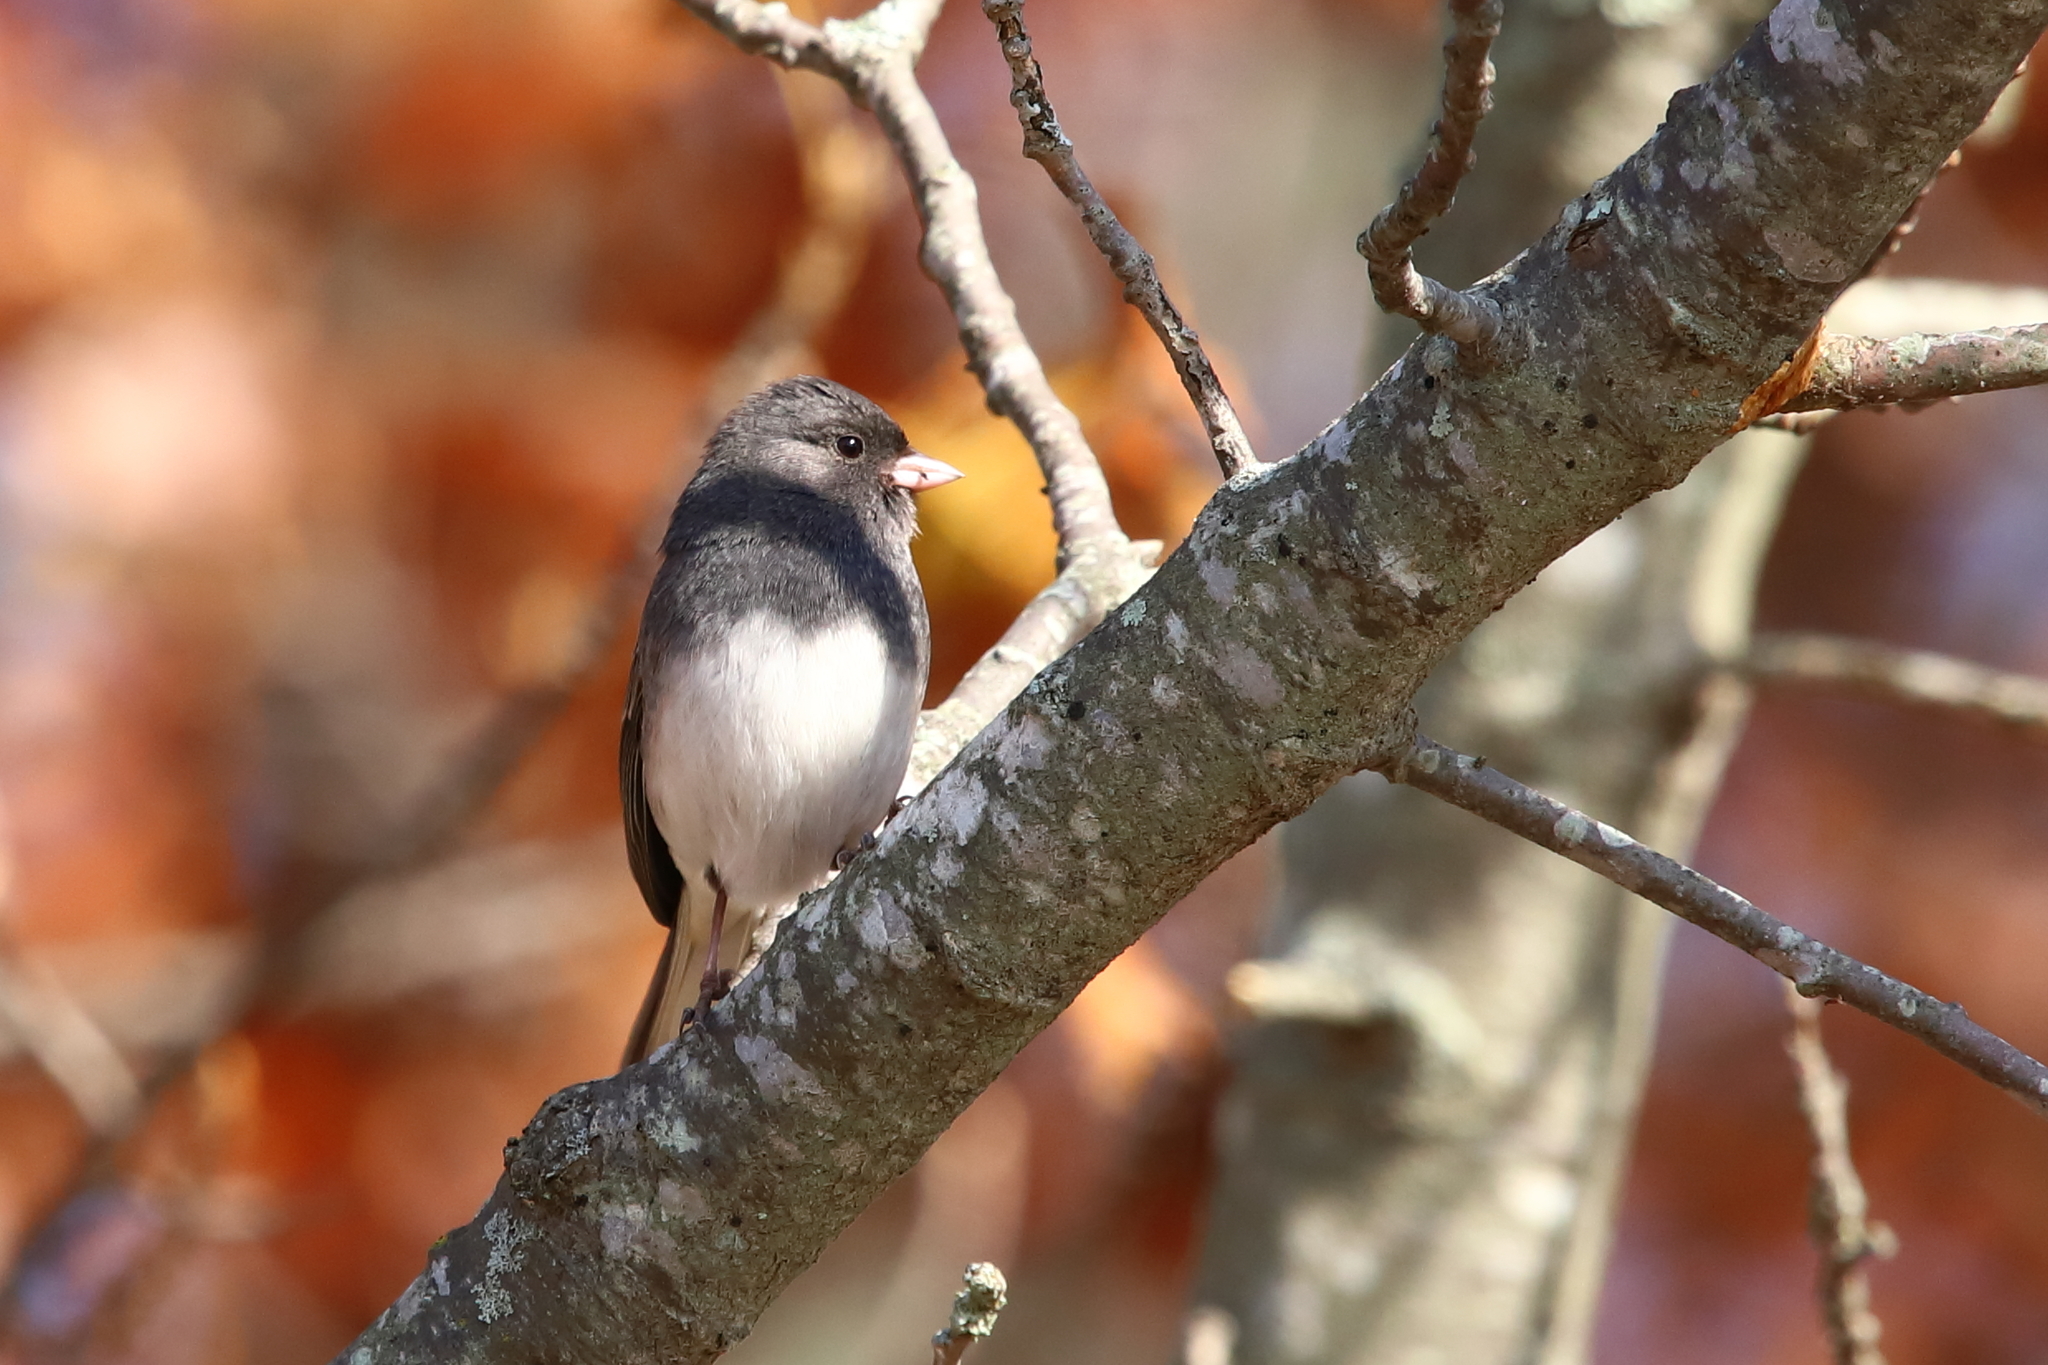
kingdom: Animalia
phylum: Chordata
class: Aves
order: Passeriformes
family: Passerellidae
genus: Junco
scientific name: Junco hyemalis
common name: Dark-eyed junco
